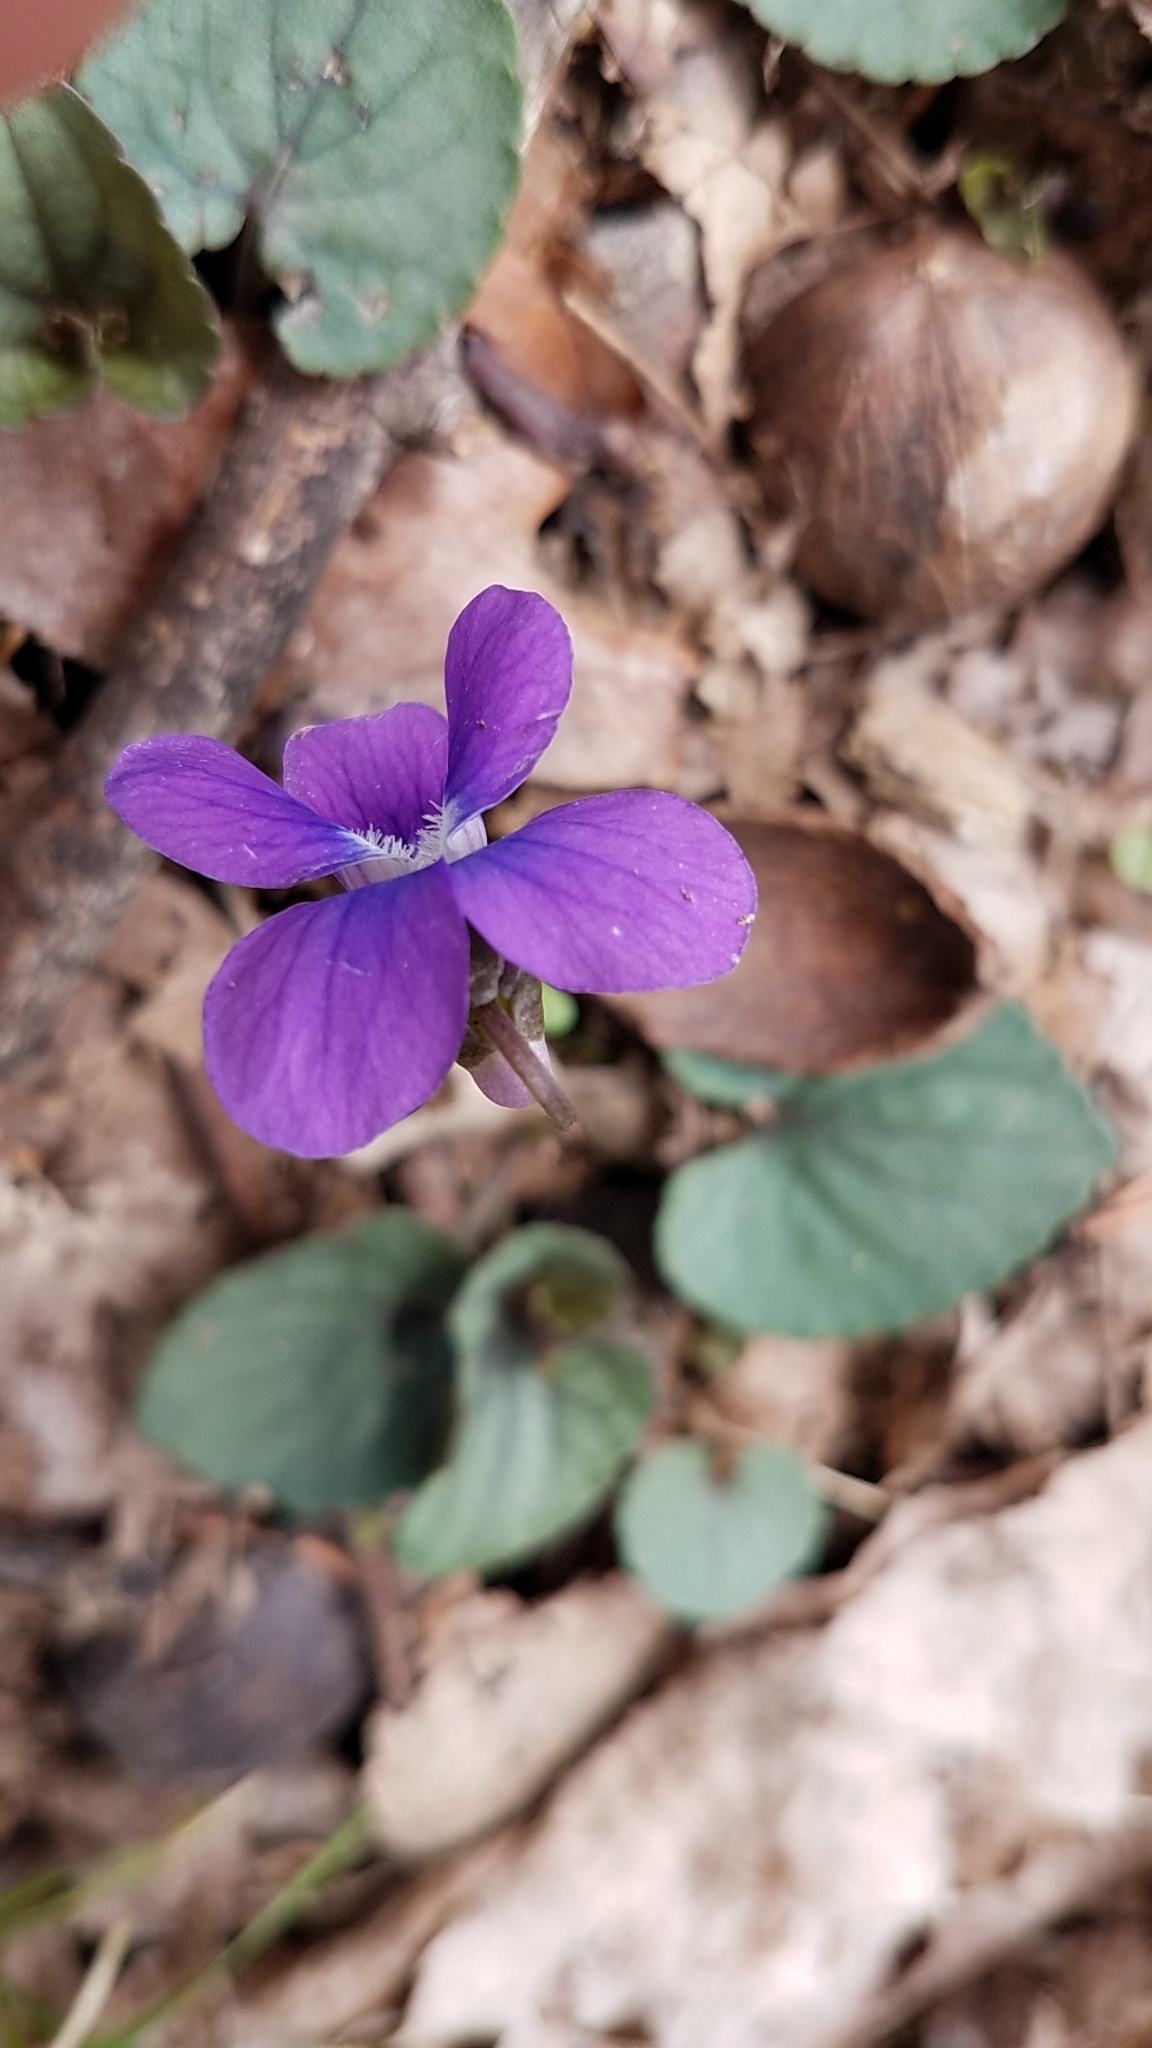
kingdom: Plantae
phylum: Tracheophyta
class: Magnoliopsida
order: Malpighiales
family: Violaceae
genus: Viola
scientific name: Viola sororia
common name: Dooryard violet
